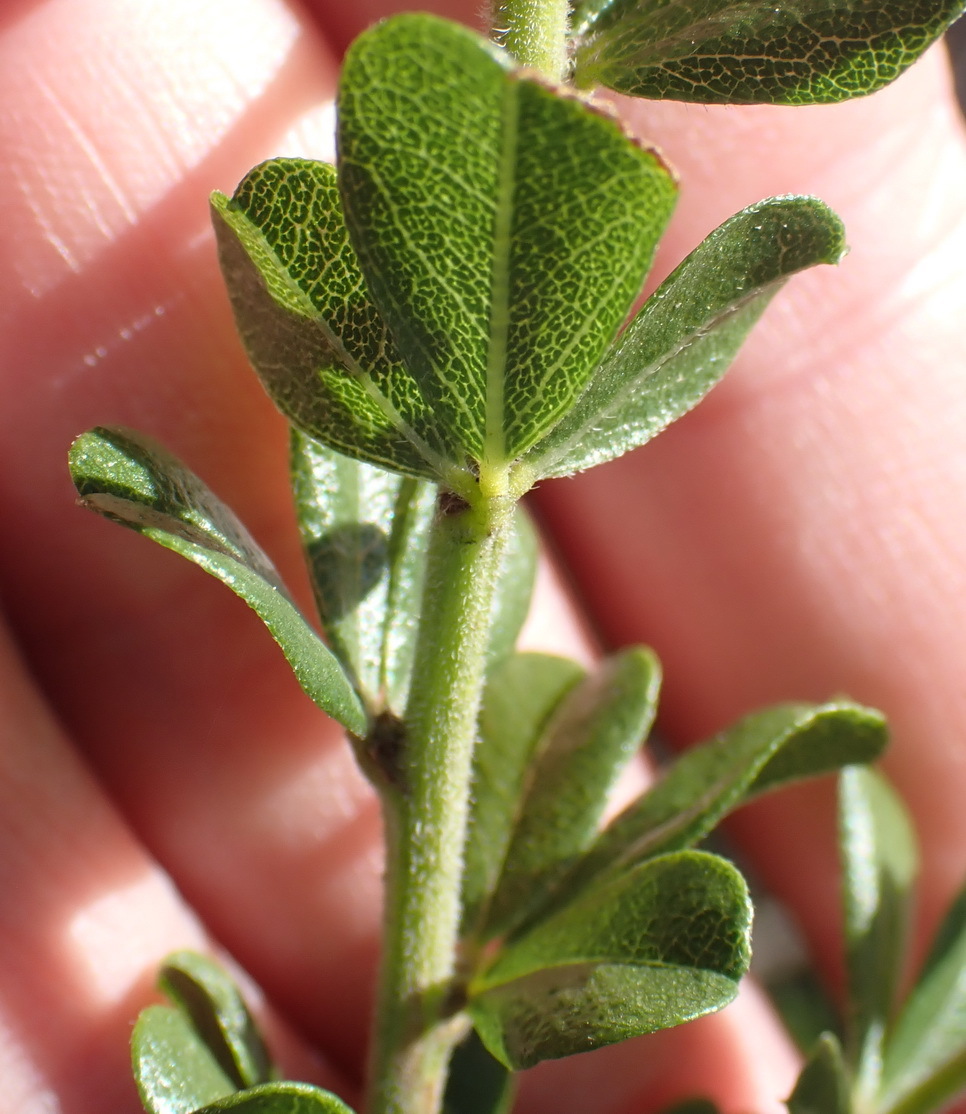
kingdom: Plantae
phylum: Tracheophyta
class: Magnoliopsida
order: Fabales
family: Fabaceae
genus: Psoralea
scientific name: Psoralea acuminata
